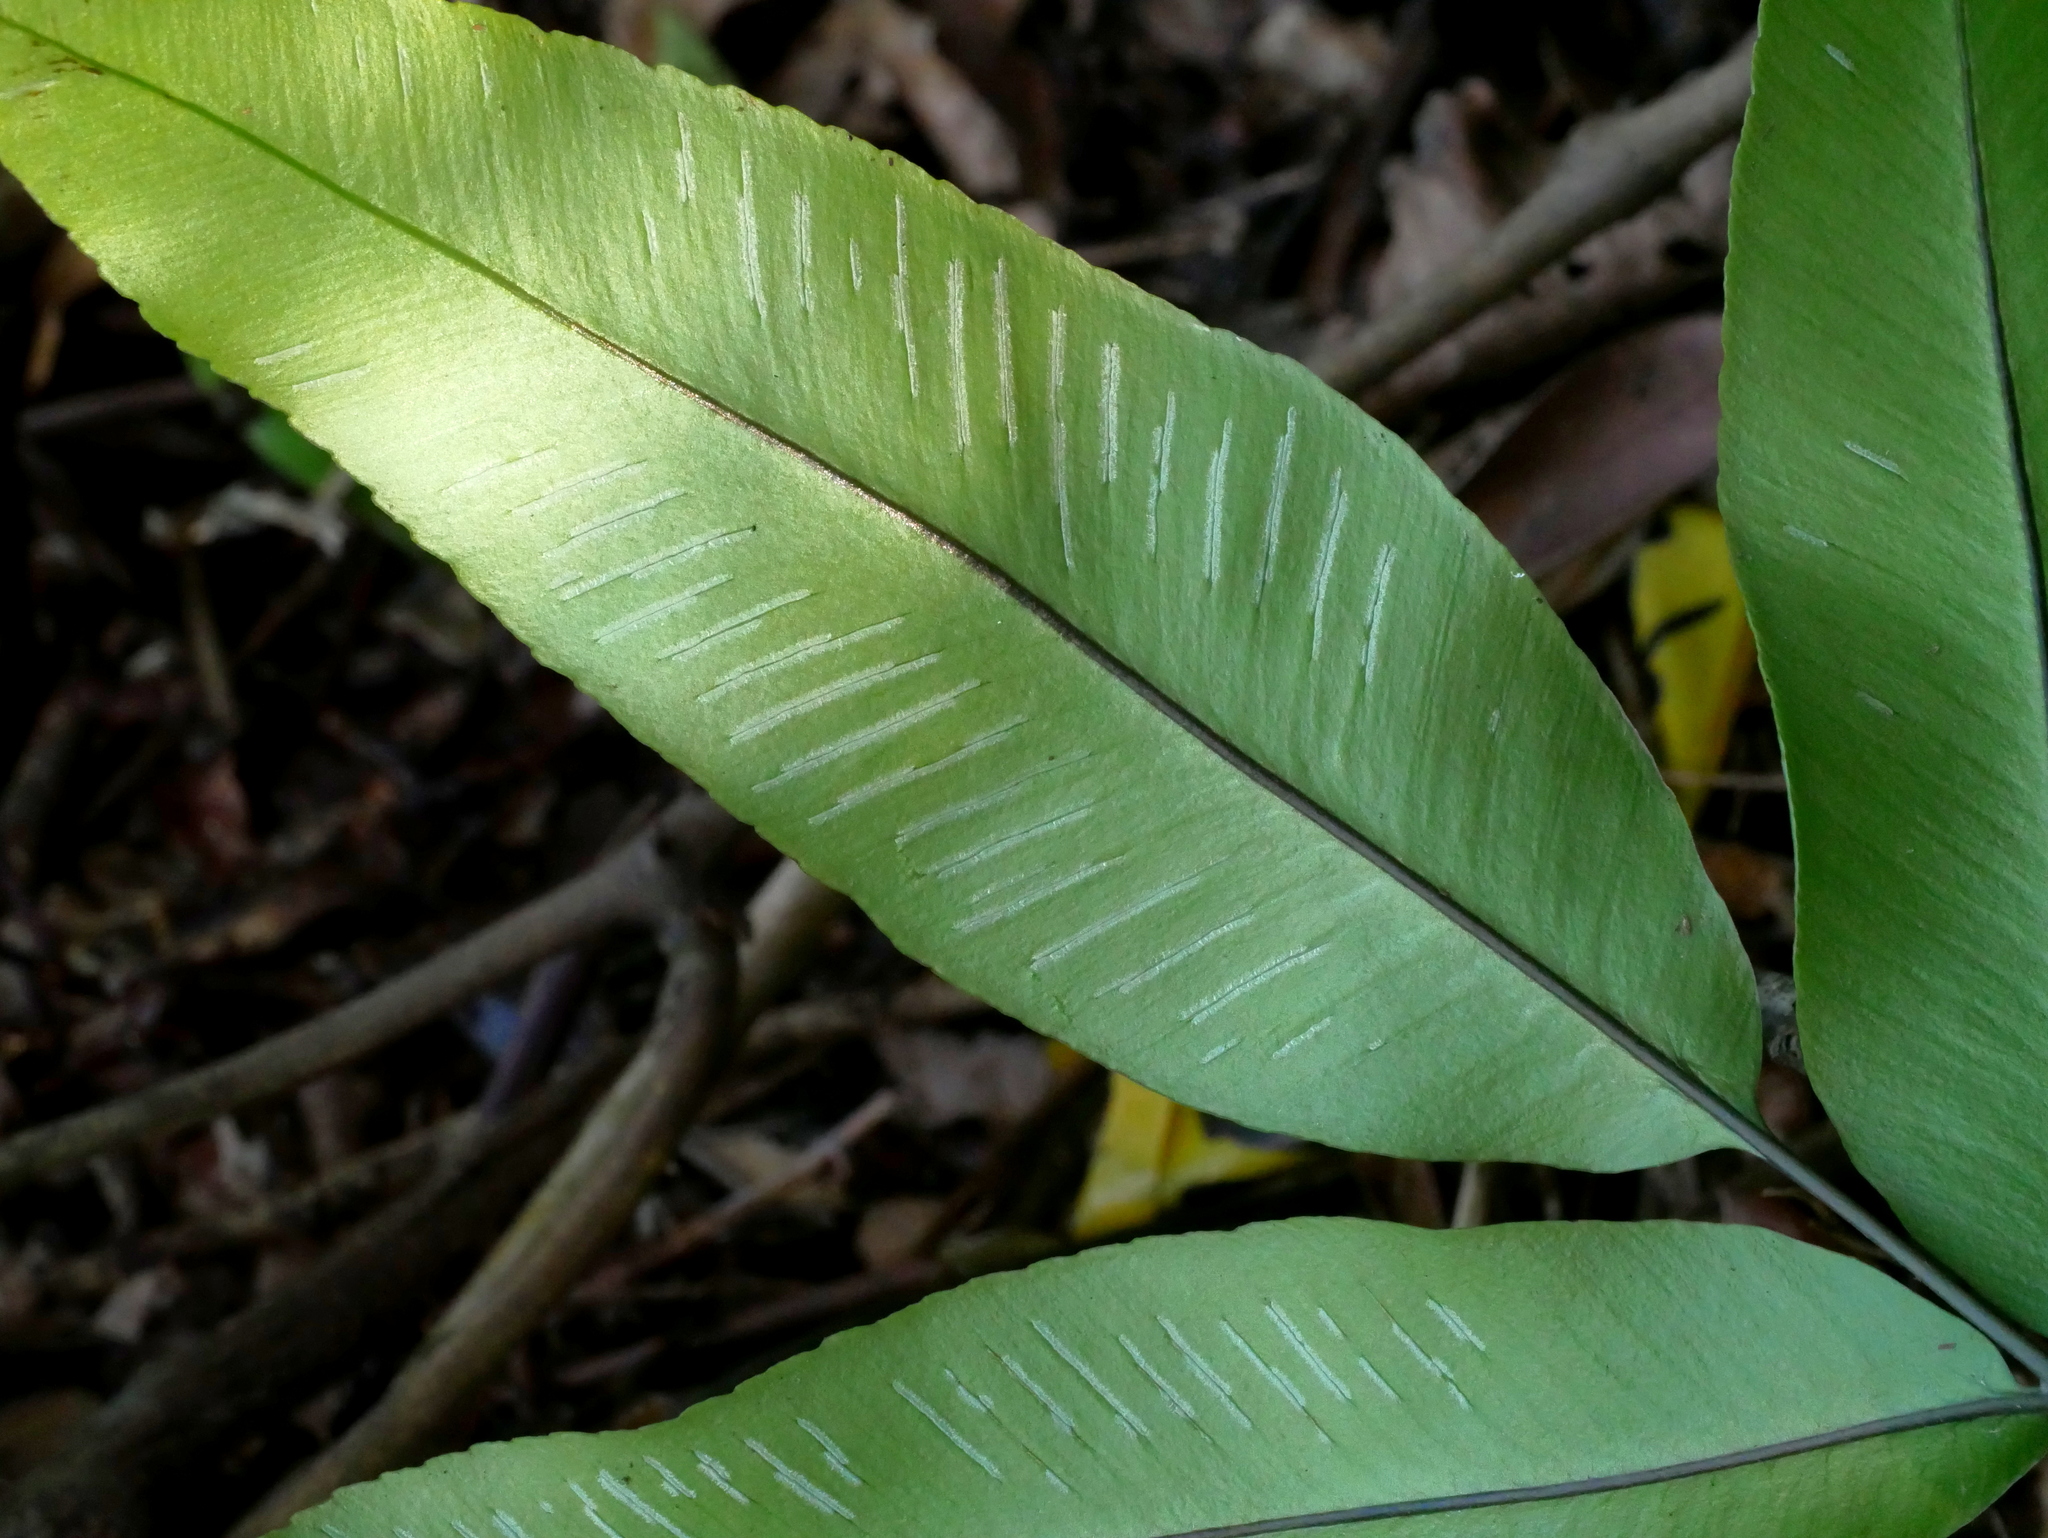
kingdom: Plantae
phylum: Tracheophyta
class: Polypodiopsida
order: Polypodiales
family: Athyriaceae
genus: Diplazium
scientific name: Diplazium aphanoneuron
